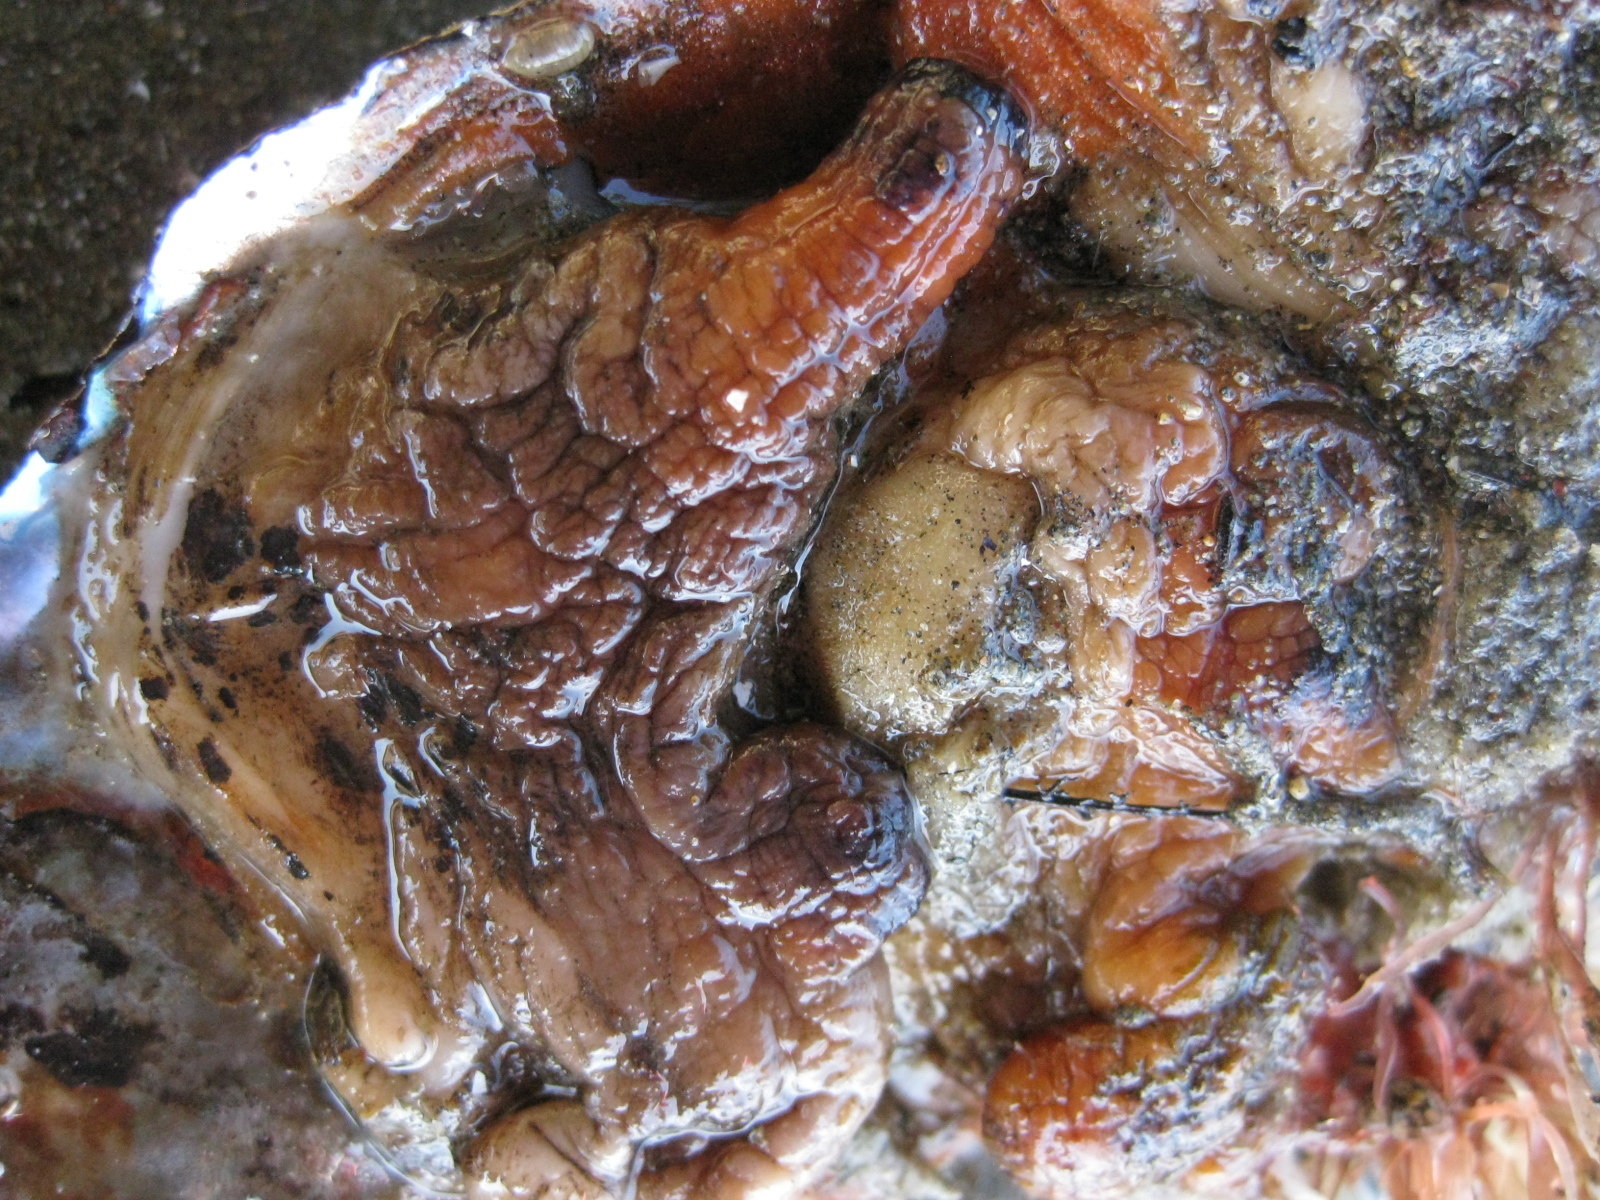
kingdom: Animalia
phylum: Chordata
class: Ascidiacea
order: Stolidobranchia
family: Styelidae
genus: Cnemidocarpa
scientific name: Cnemidocarpa bicornuta
